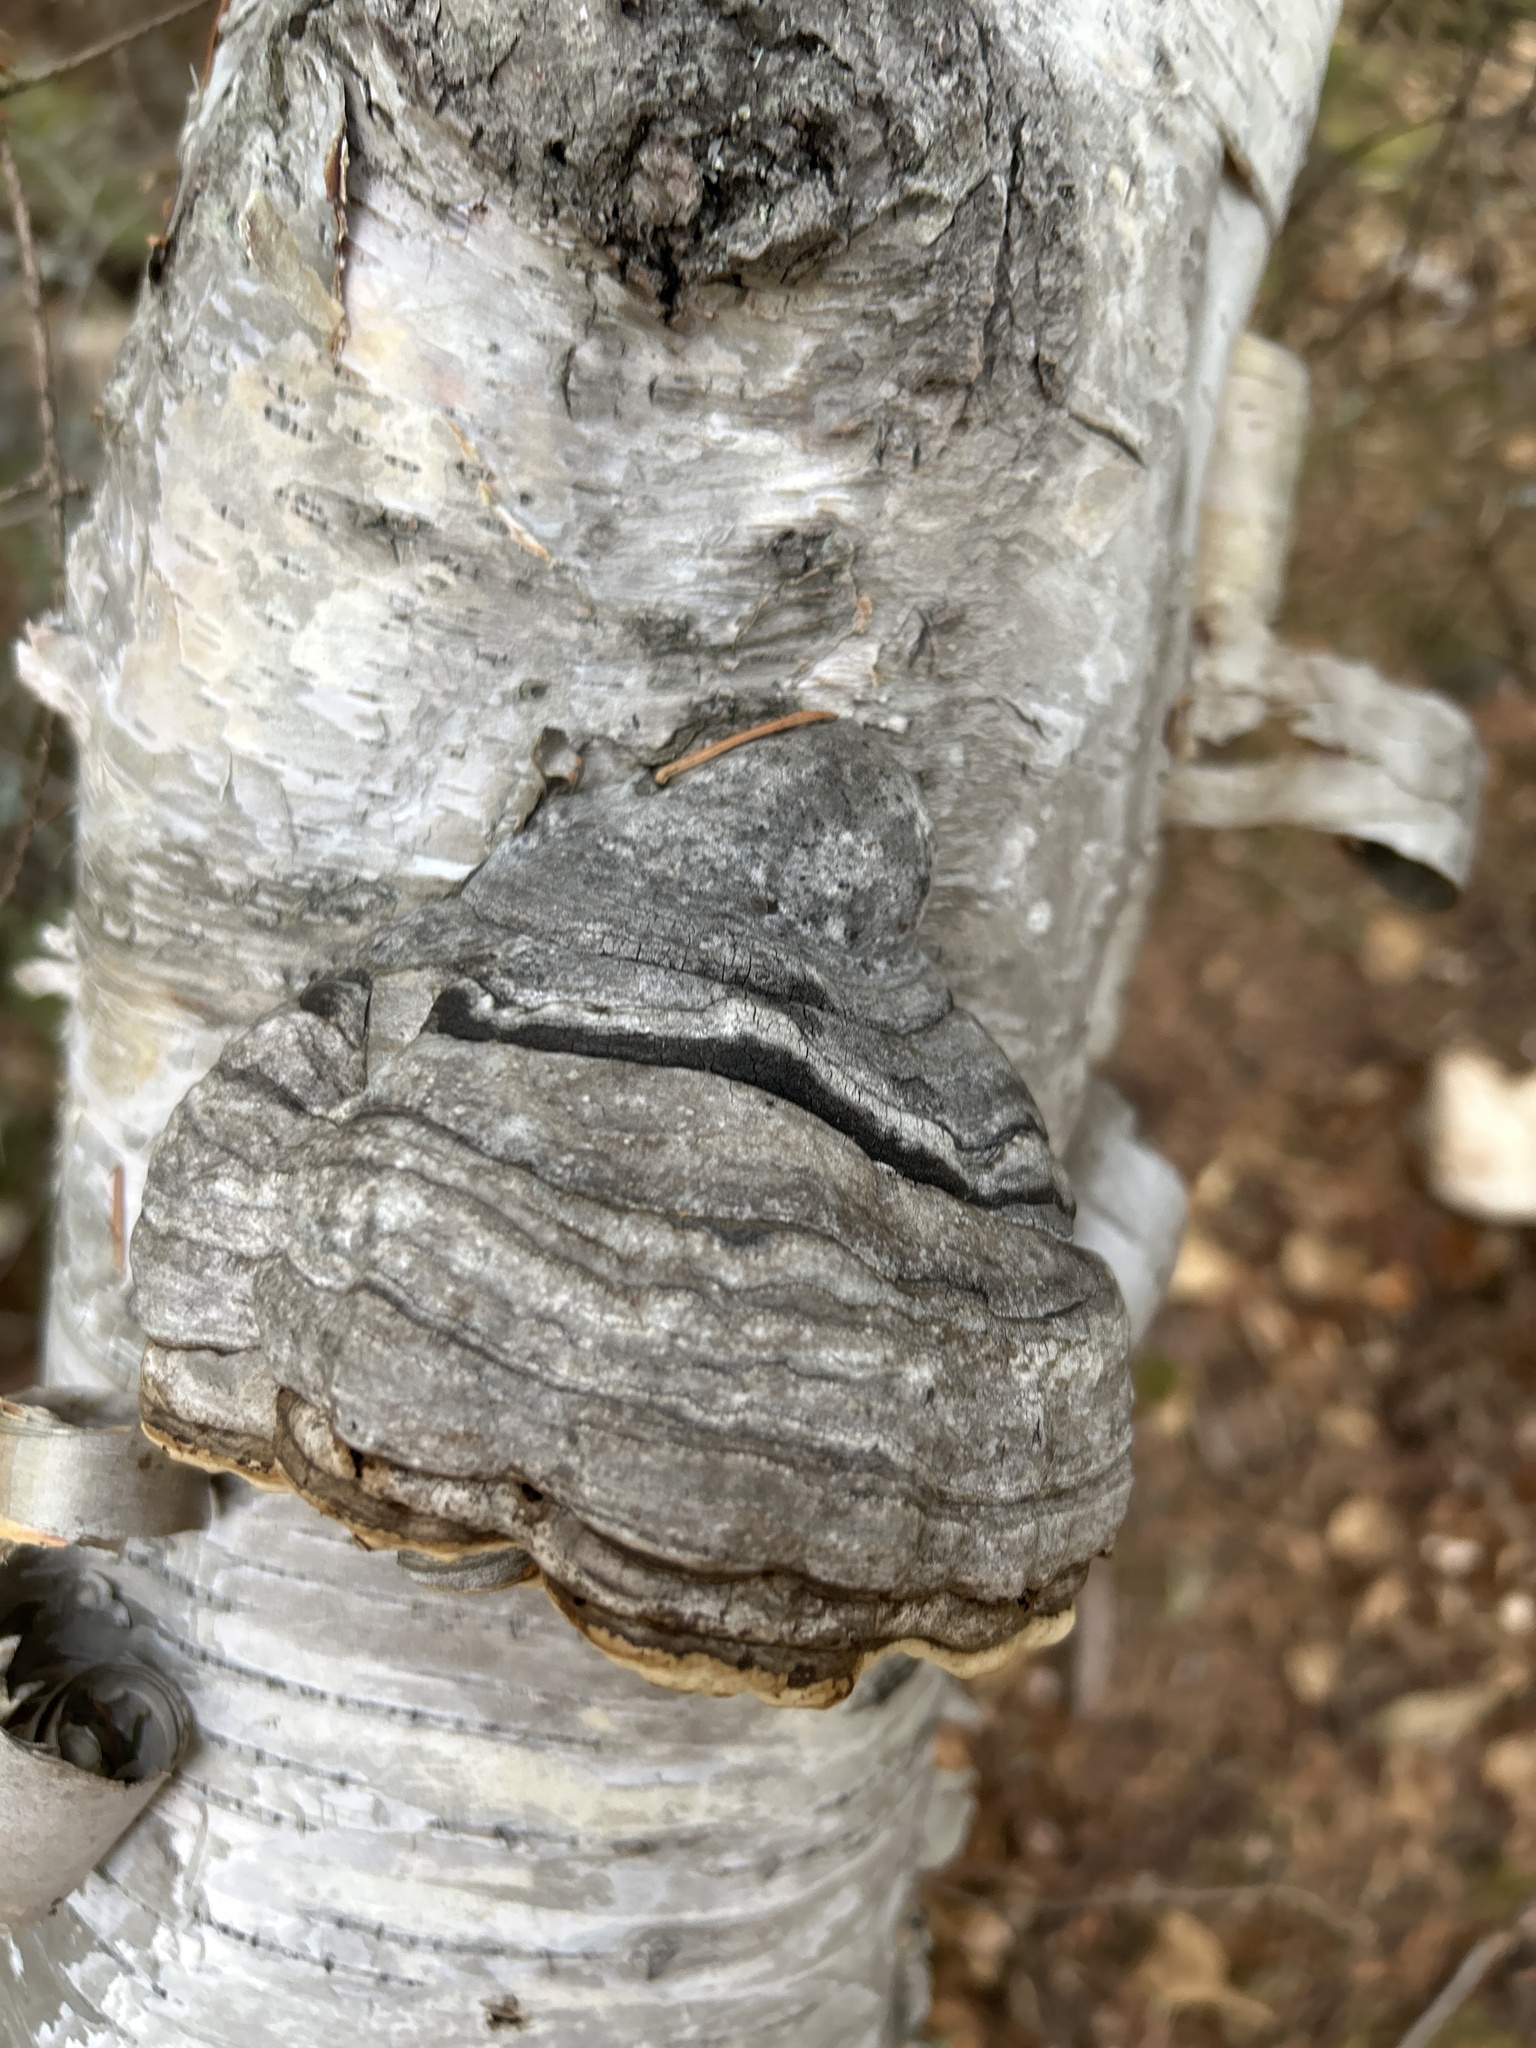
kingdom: Fungi
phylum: Basidiomycota
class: Agaricomycetes
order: Polyporales
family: Polyporaceae
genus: Fomes
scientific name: Fomes fomentarius
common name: Hoof fungus
